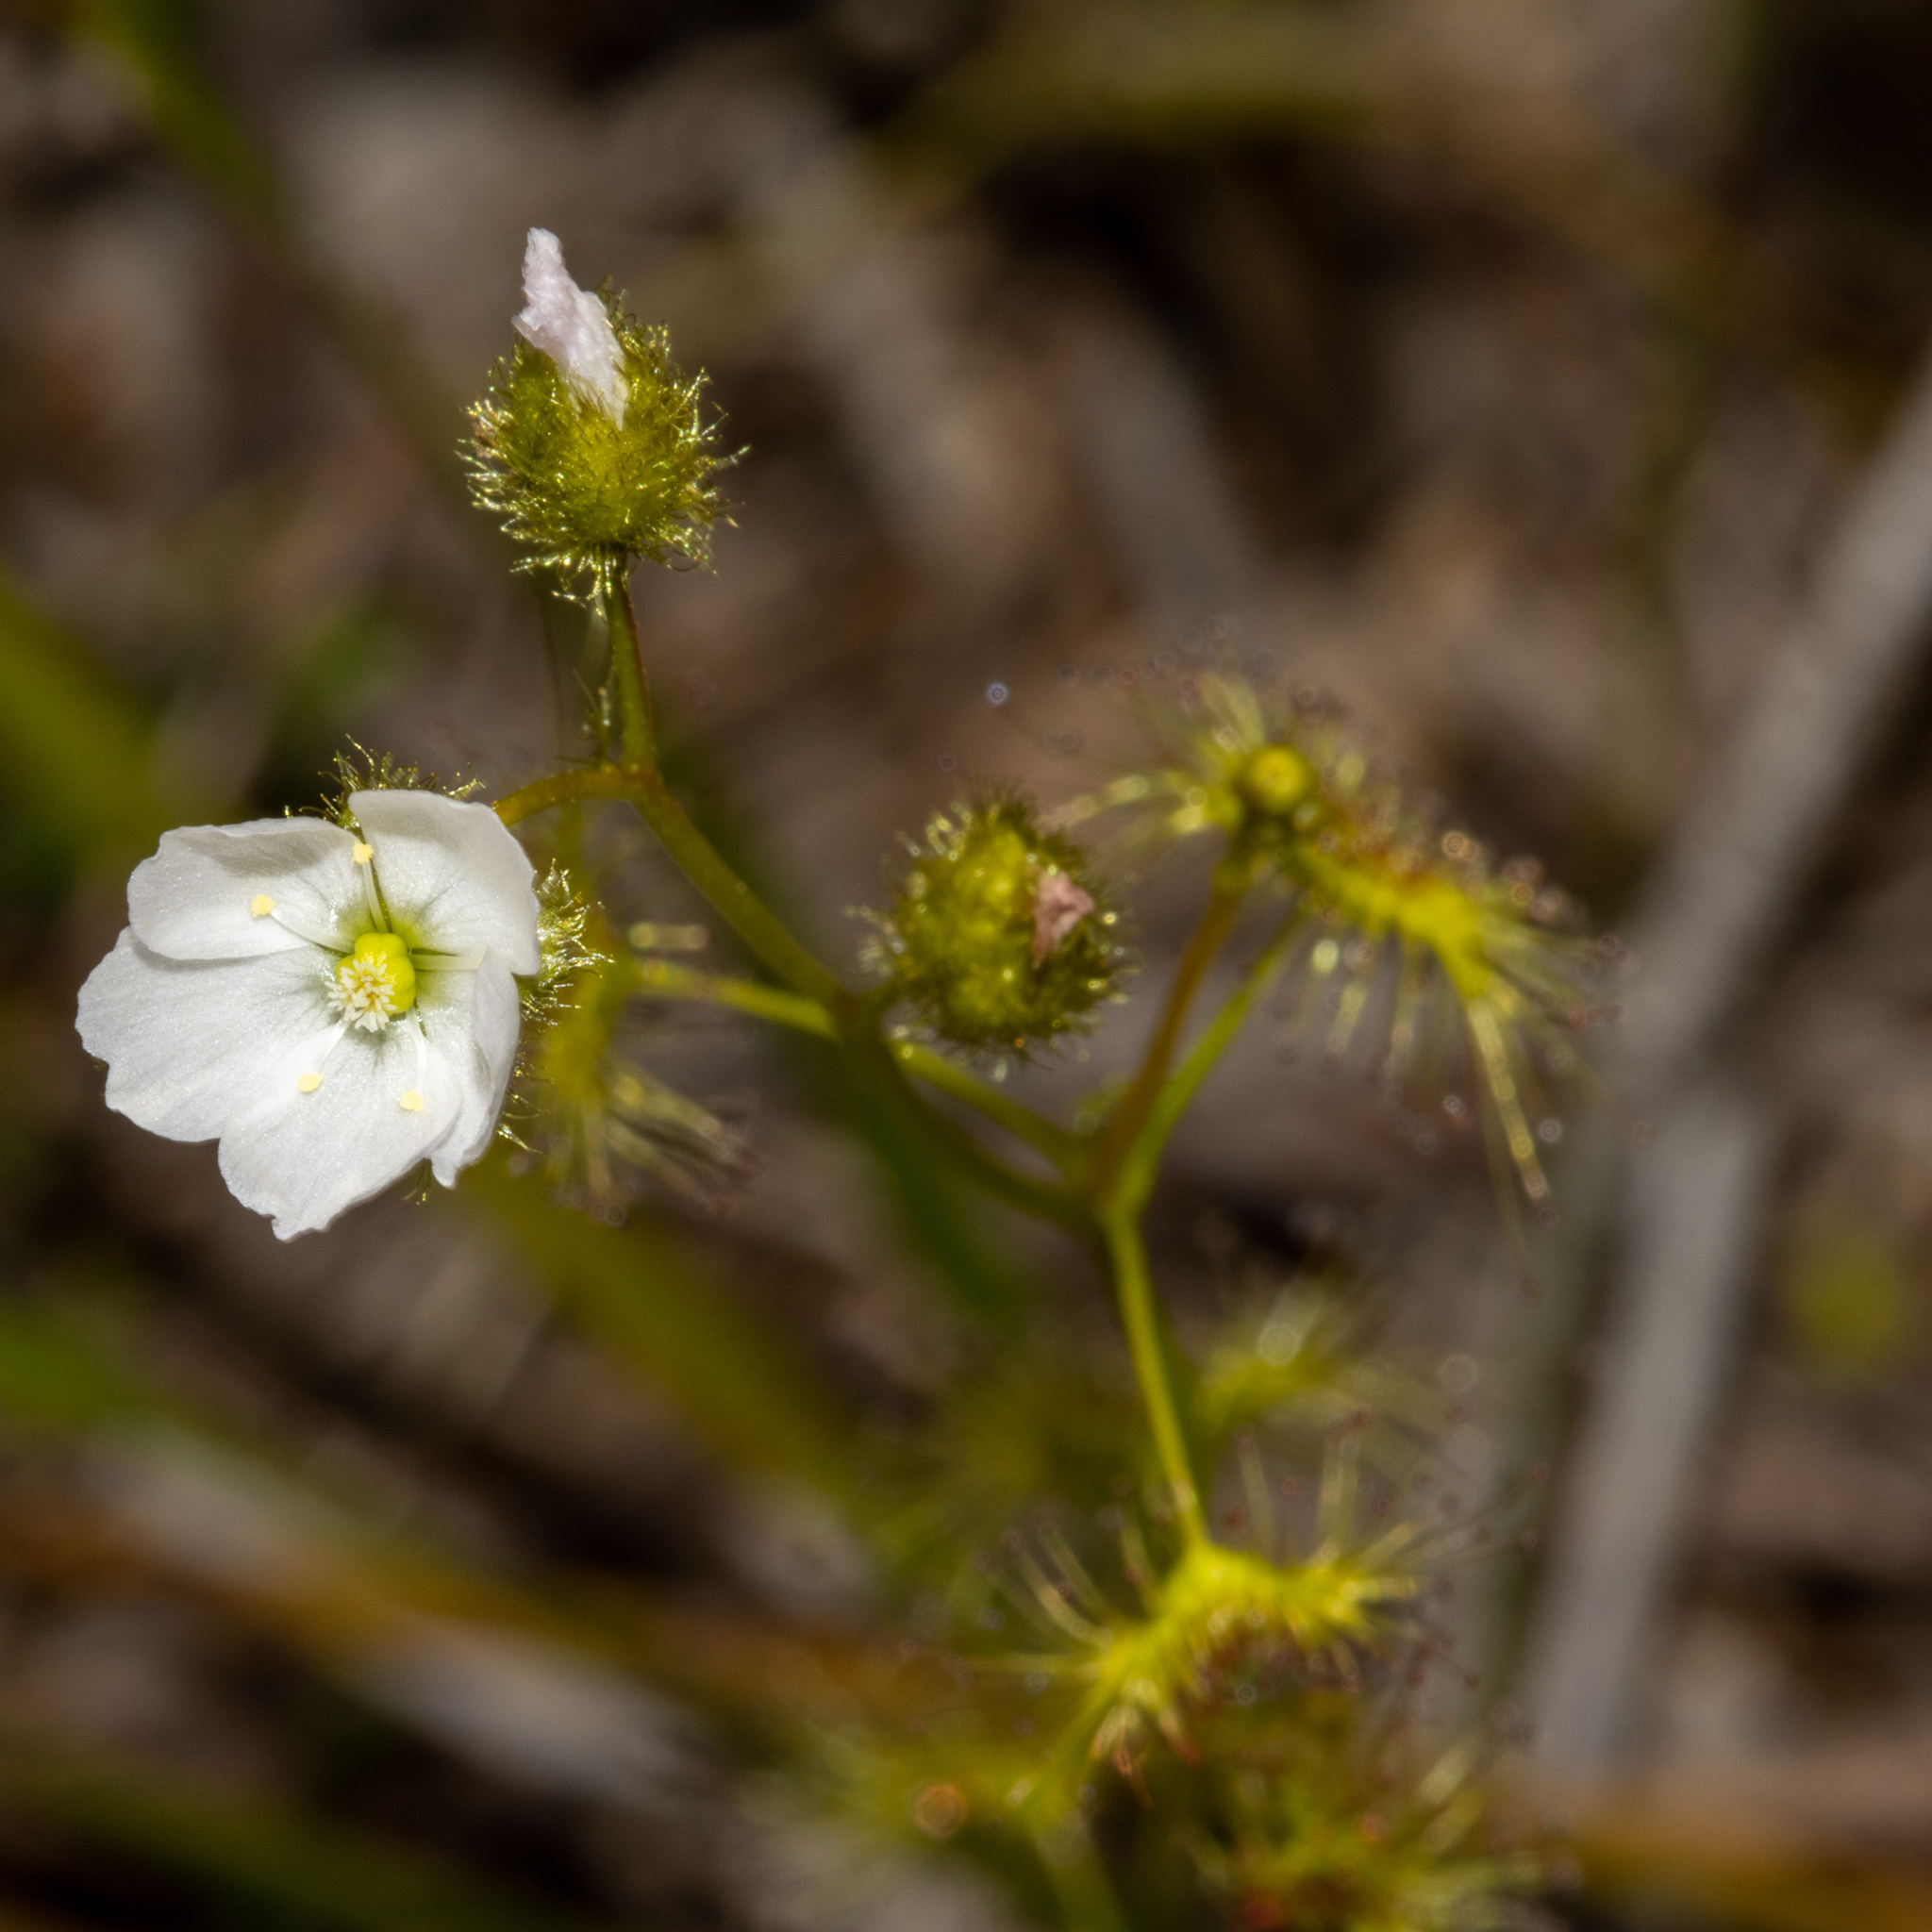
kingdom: Plantae
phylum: Tracheophyta
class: Magnoliopsida
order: Caryophyllales
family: Droseraceae
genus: Drosera
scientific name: Drosera gunniana
